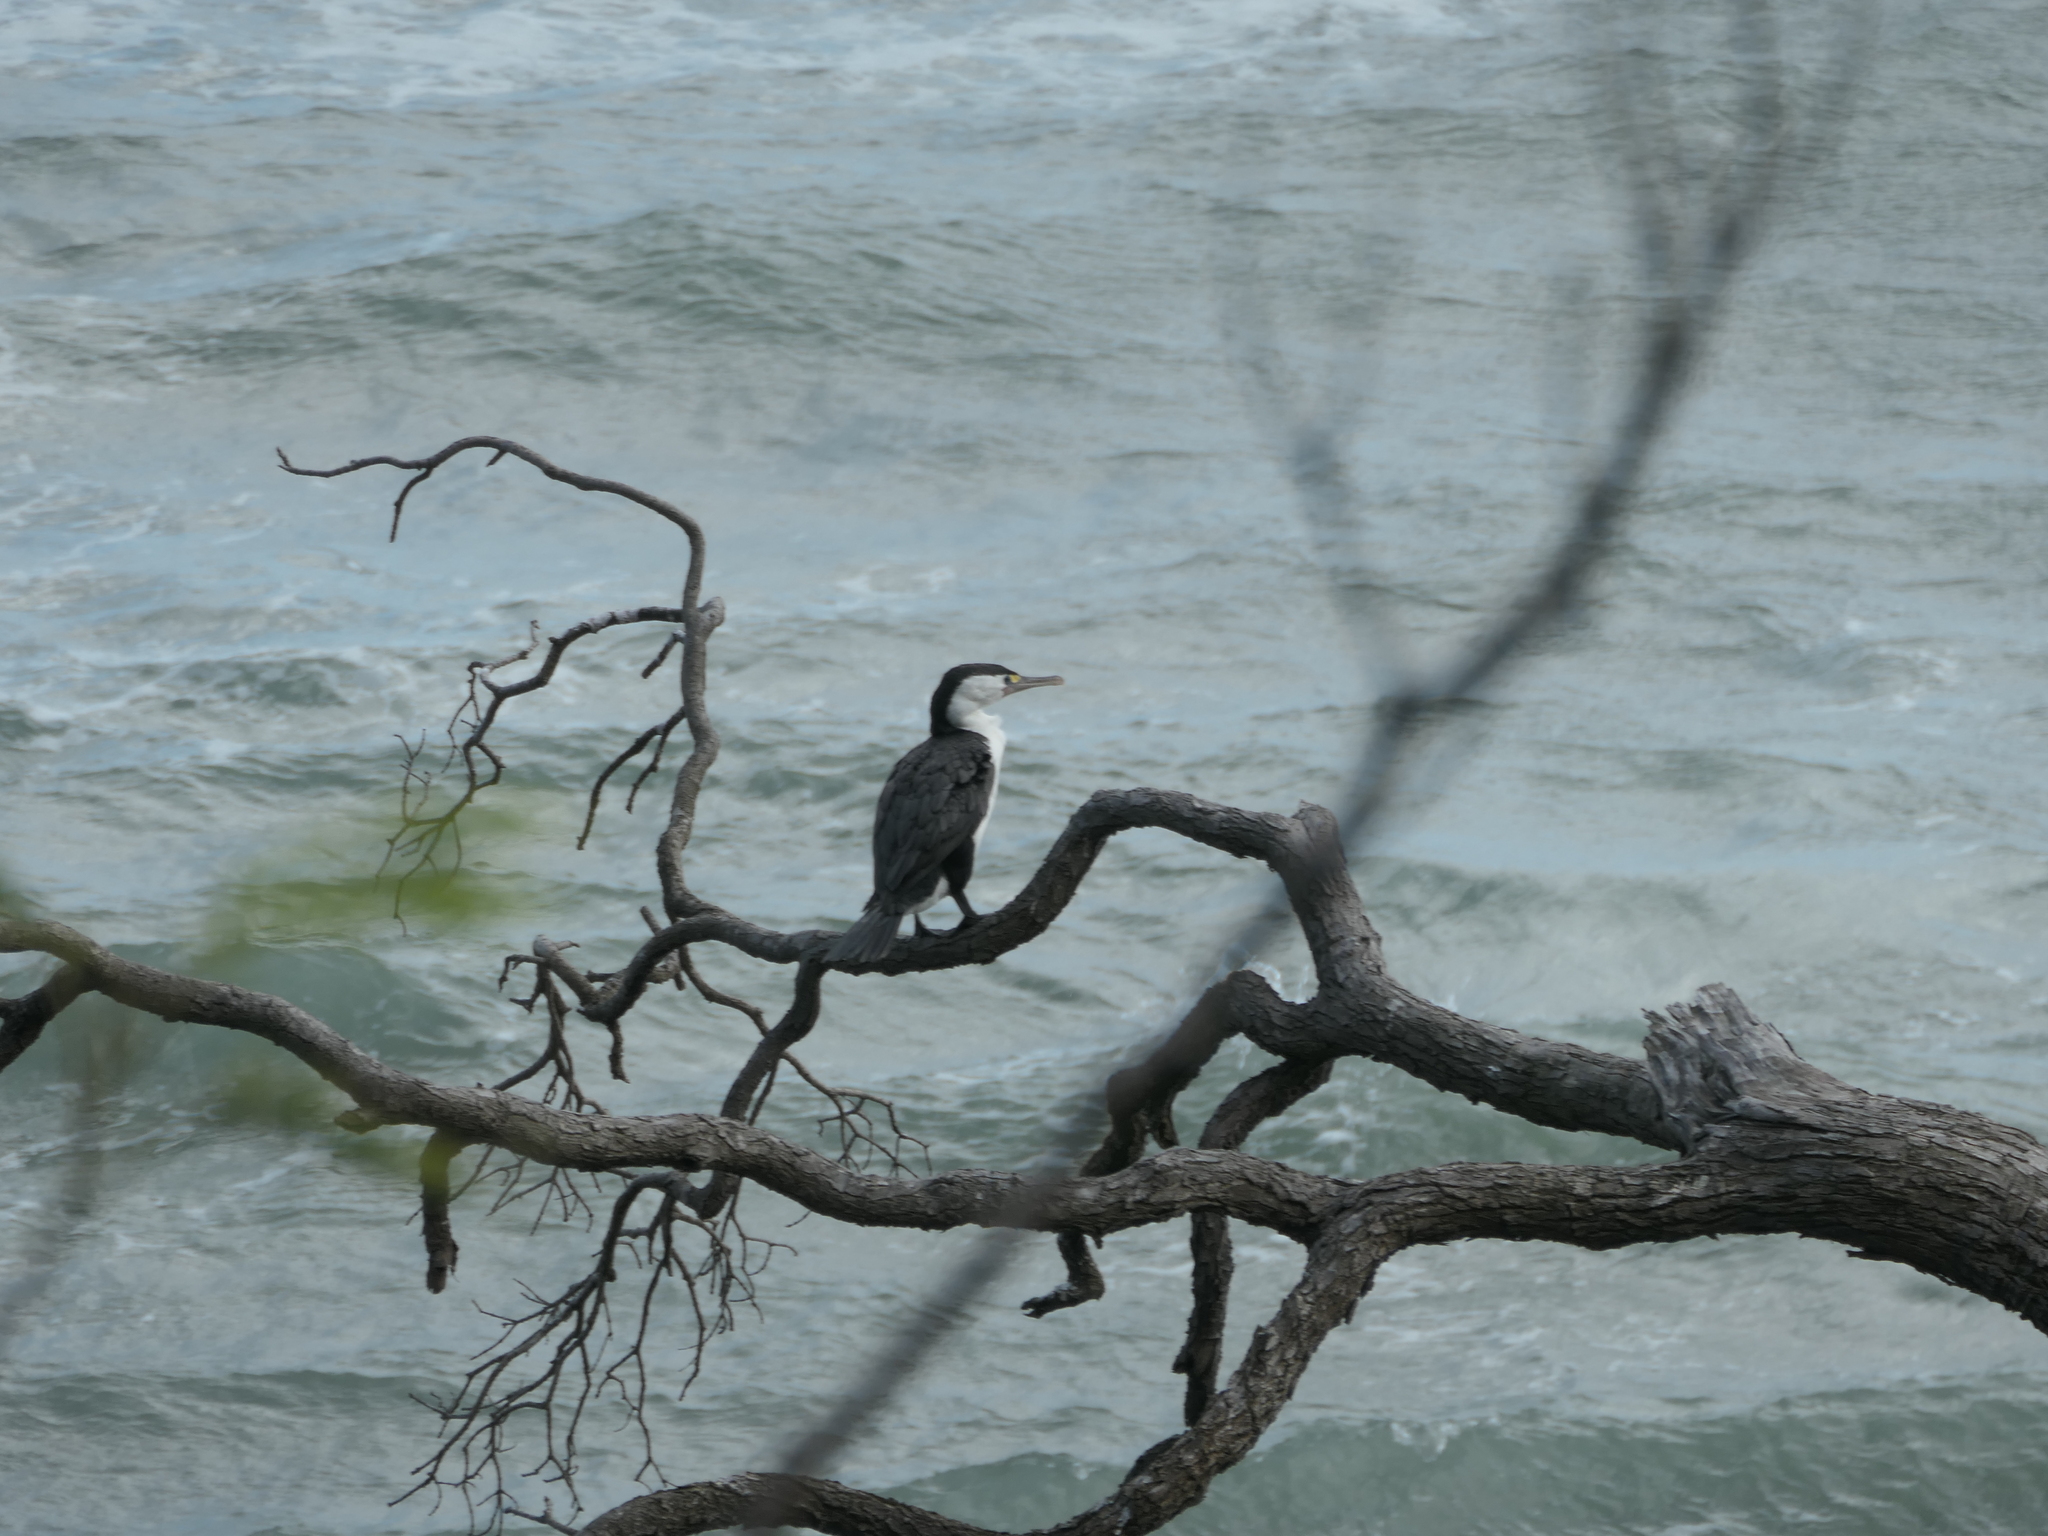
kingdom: Animalia
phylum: Chordata
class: Aves
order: Suliformes
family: Phalacrocoracidae
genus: Phalacrocorax
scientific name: Phalacrocorax varius
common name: Pied cormorant
